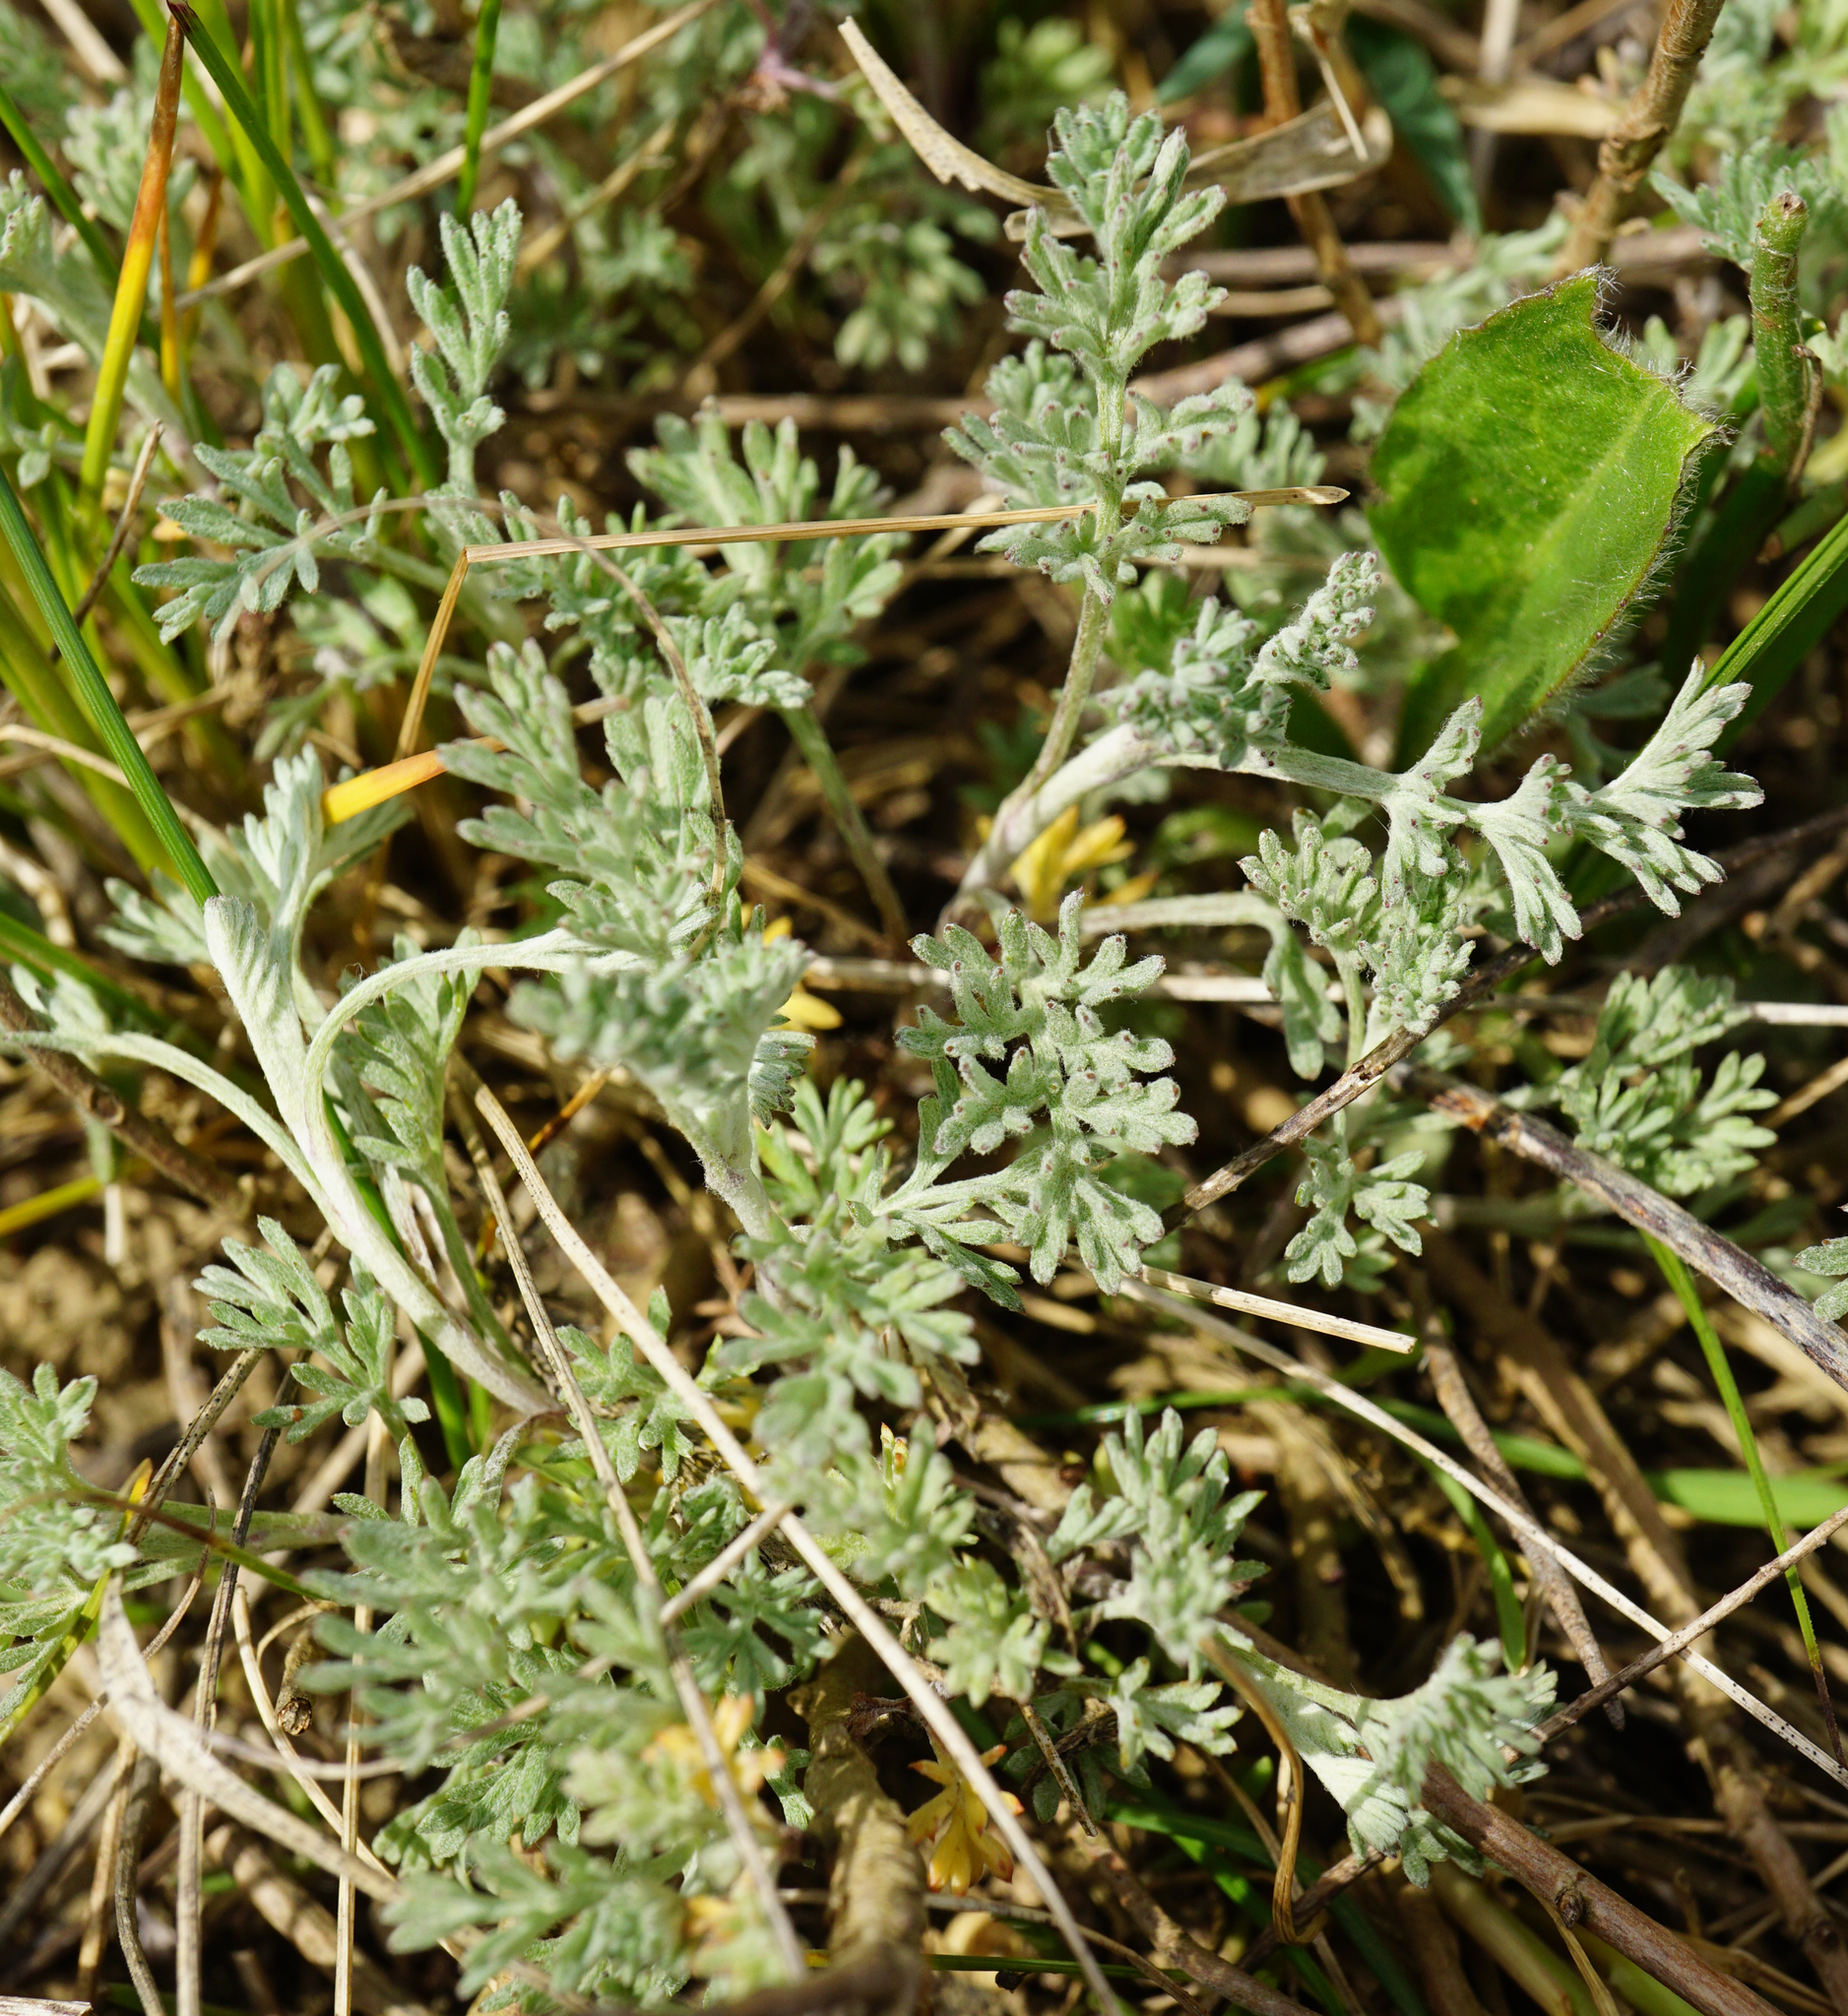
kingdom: Plantae
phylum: Tracheophyta
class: Magnoliopsida
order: Asterales
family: Asteraceae
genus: Artemisia
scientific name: Artemisia absinthium
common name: Wormwood
